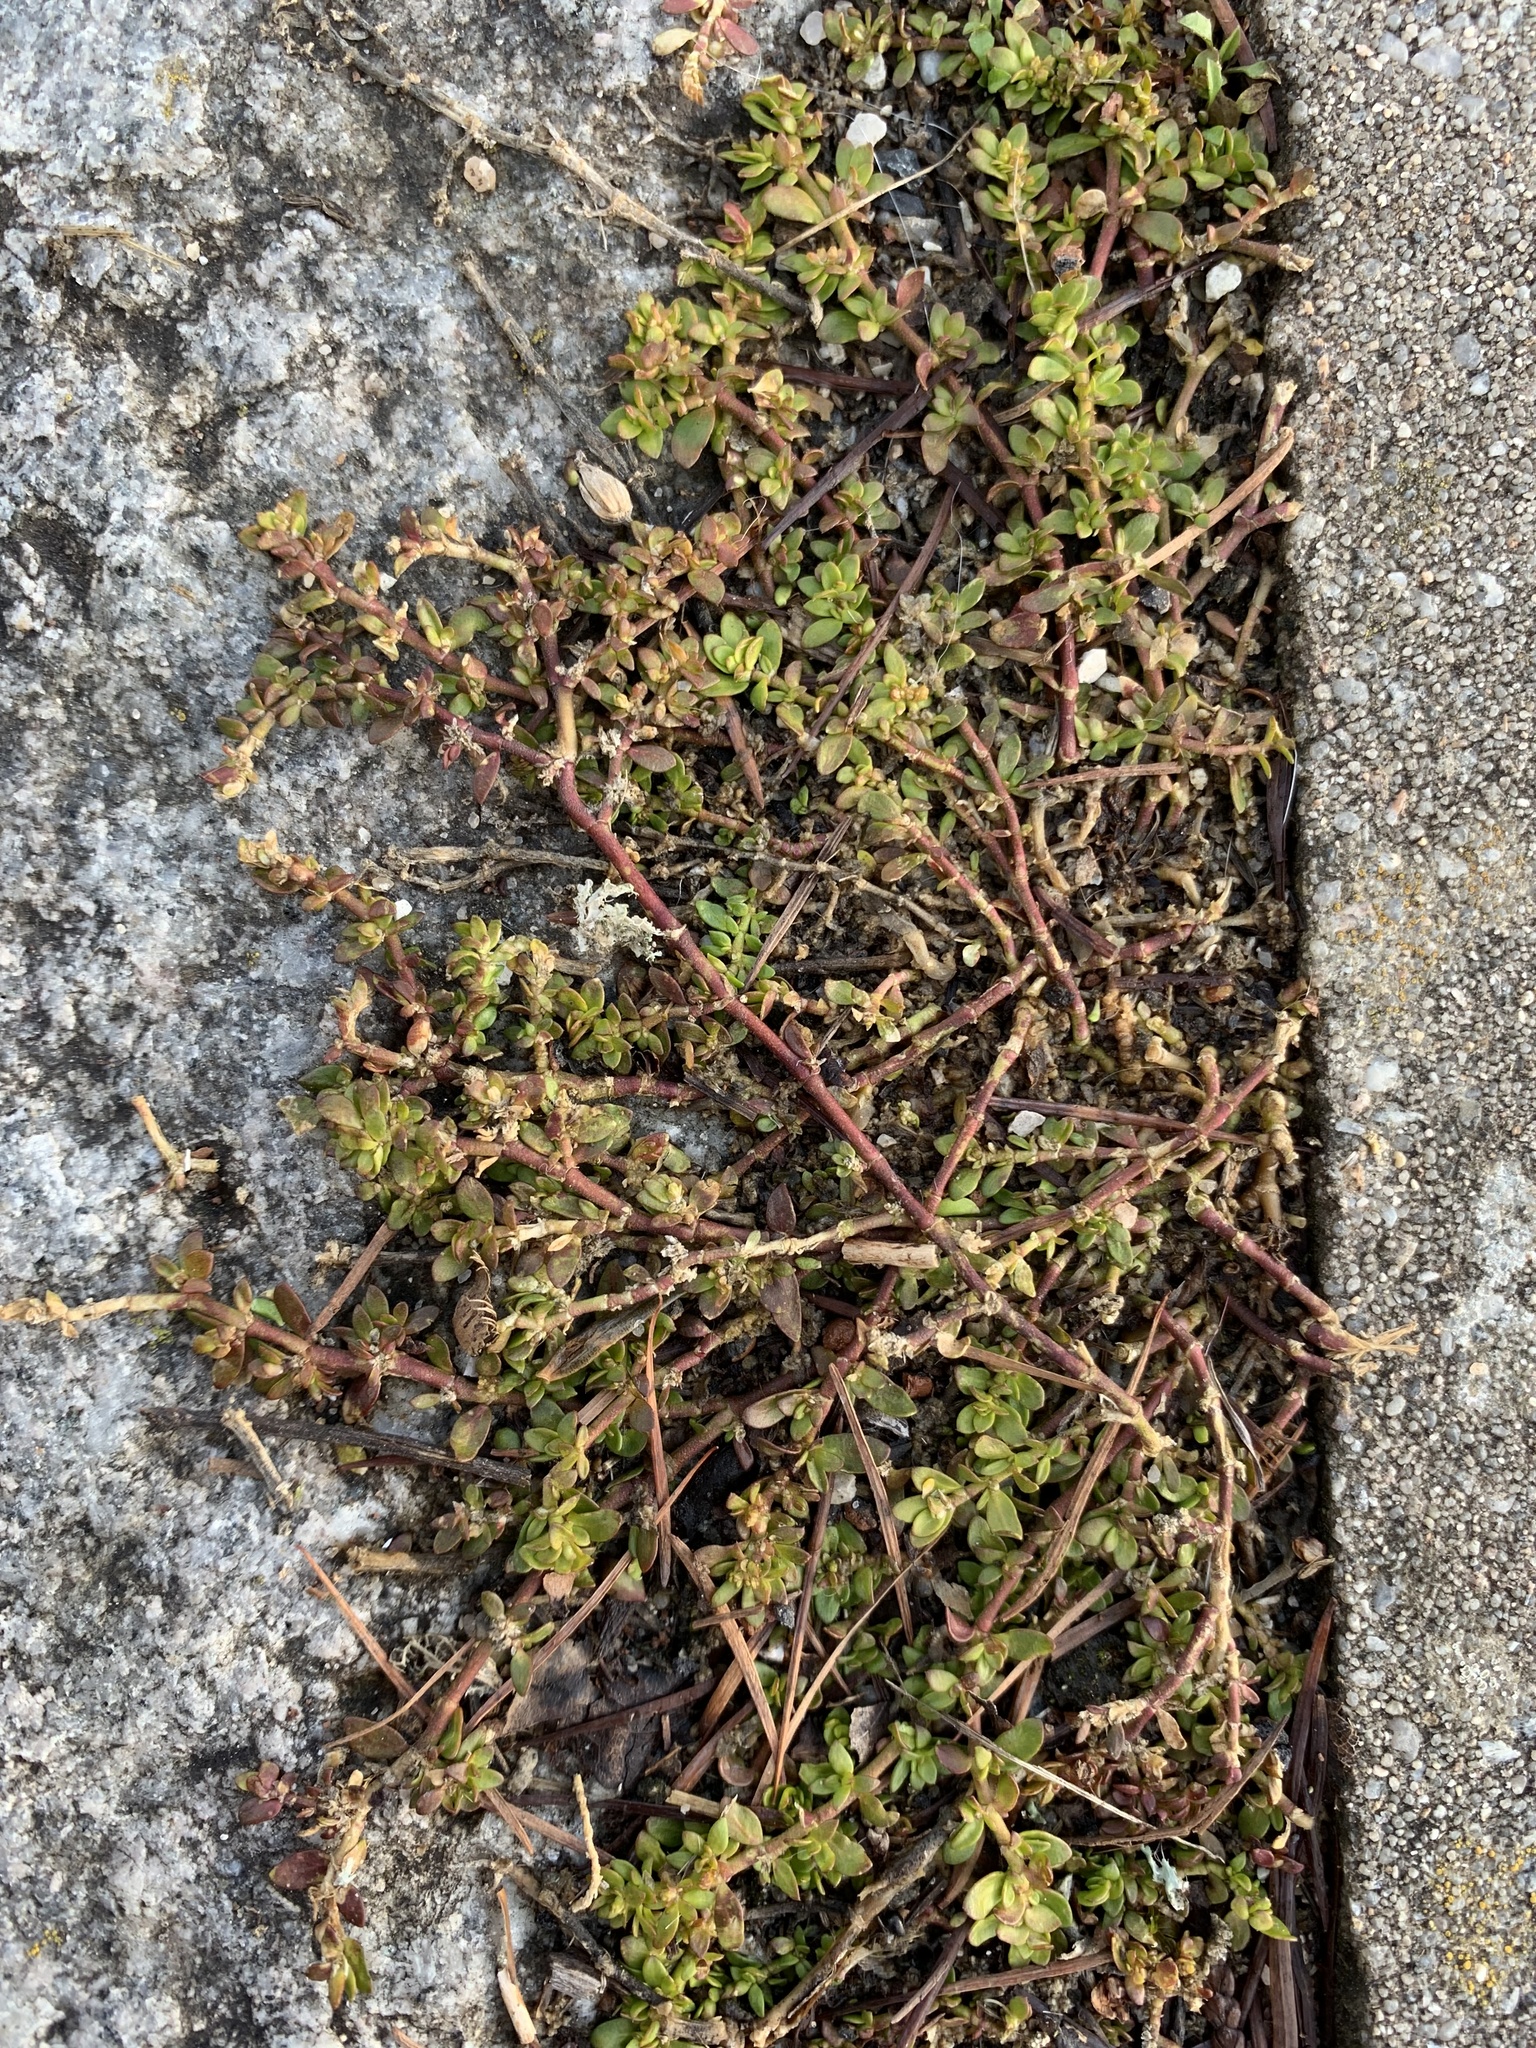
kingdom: Plantae
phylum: Tracheophyta
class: Magnoliopsida
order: Caryophyllales
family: Polygonaceae
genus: Polygonum
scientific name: Polygonum arenastrum
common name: Equal-leaved knotgrass
